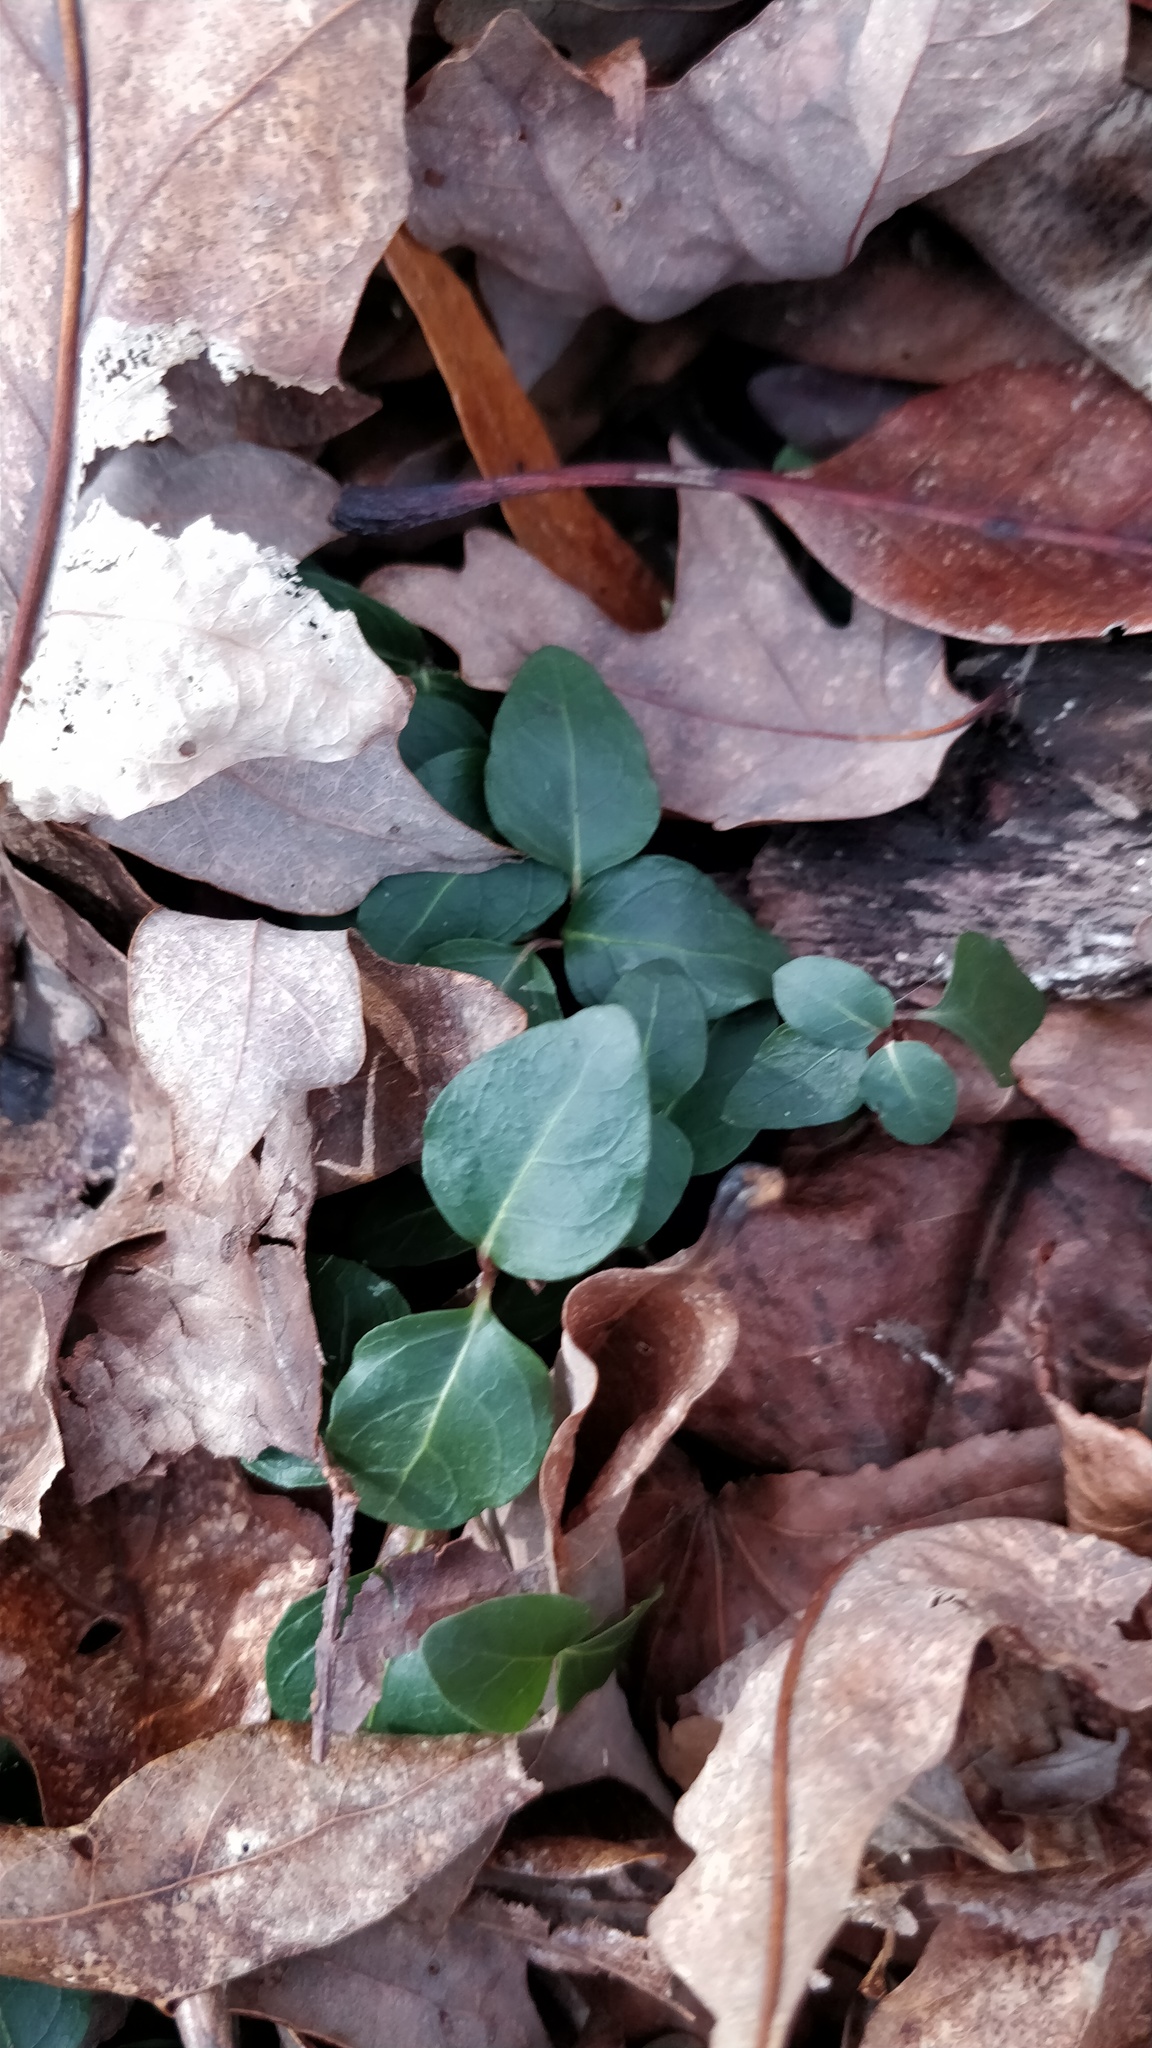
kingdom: Plantae
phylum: Tracheophyta
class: Magnoliopsida
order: Gentianales
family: Rubiaceae
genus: Mitchella
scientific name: Mitchella repens
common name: Partridge-berry
